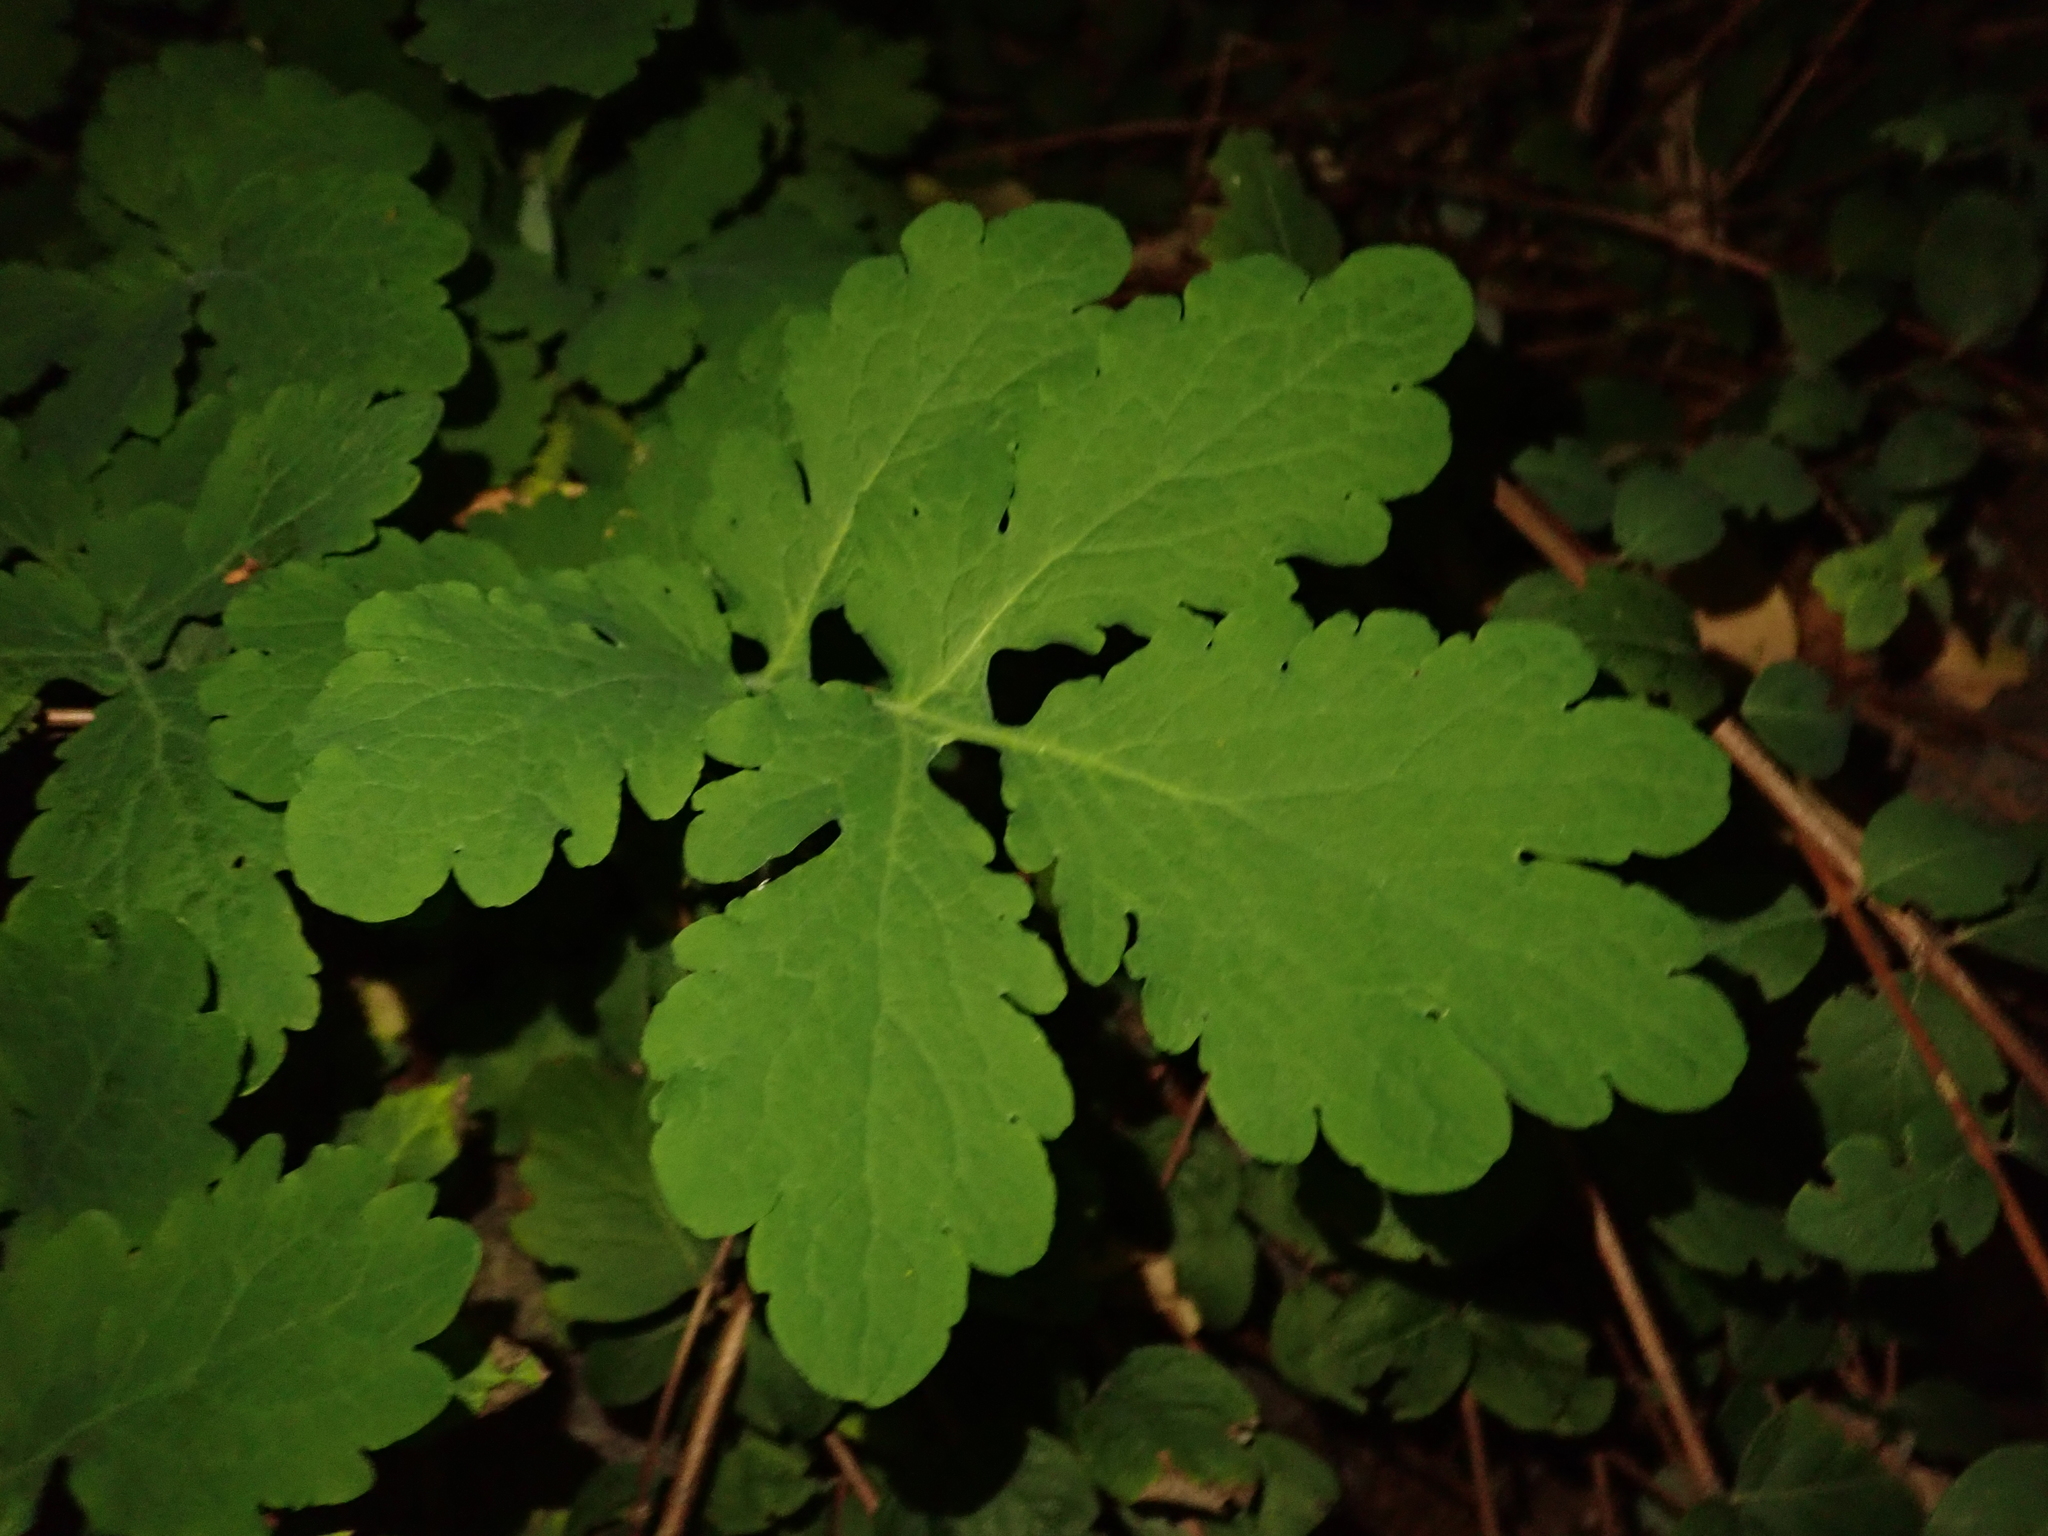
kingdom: Plantae
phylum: Tracheophyta
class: Magnoliopsida
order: Ranunculales
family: Papaveraceae
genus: Chelidonium
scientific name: Chelidonium majus
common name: Greater celandine
